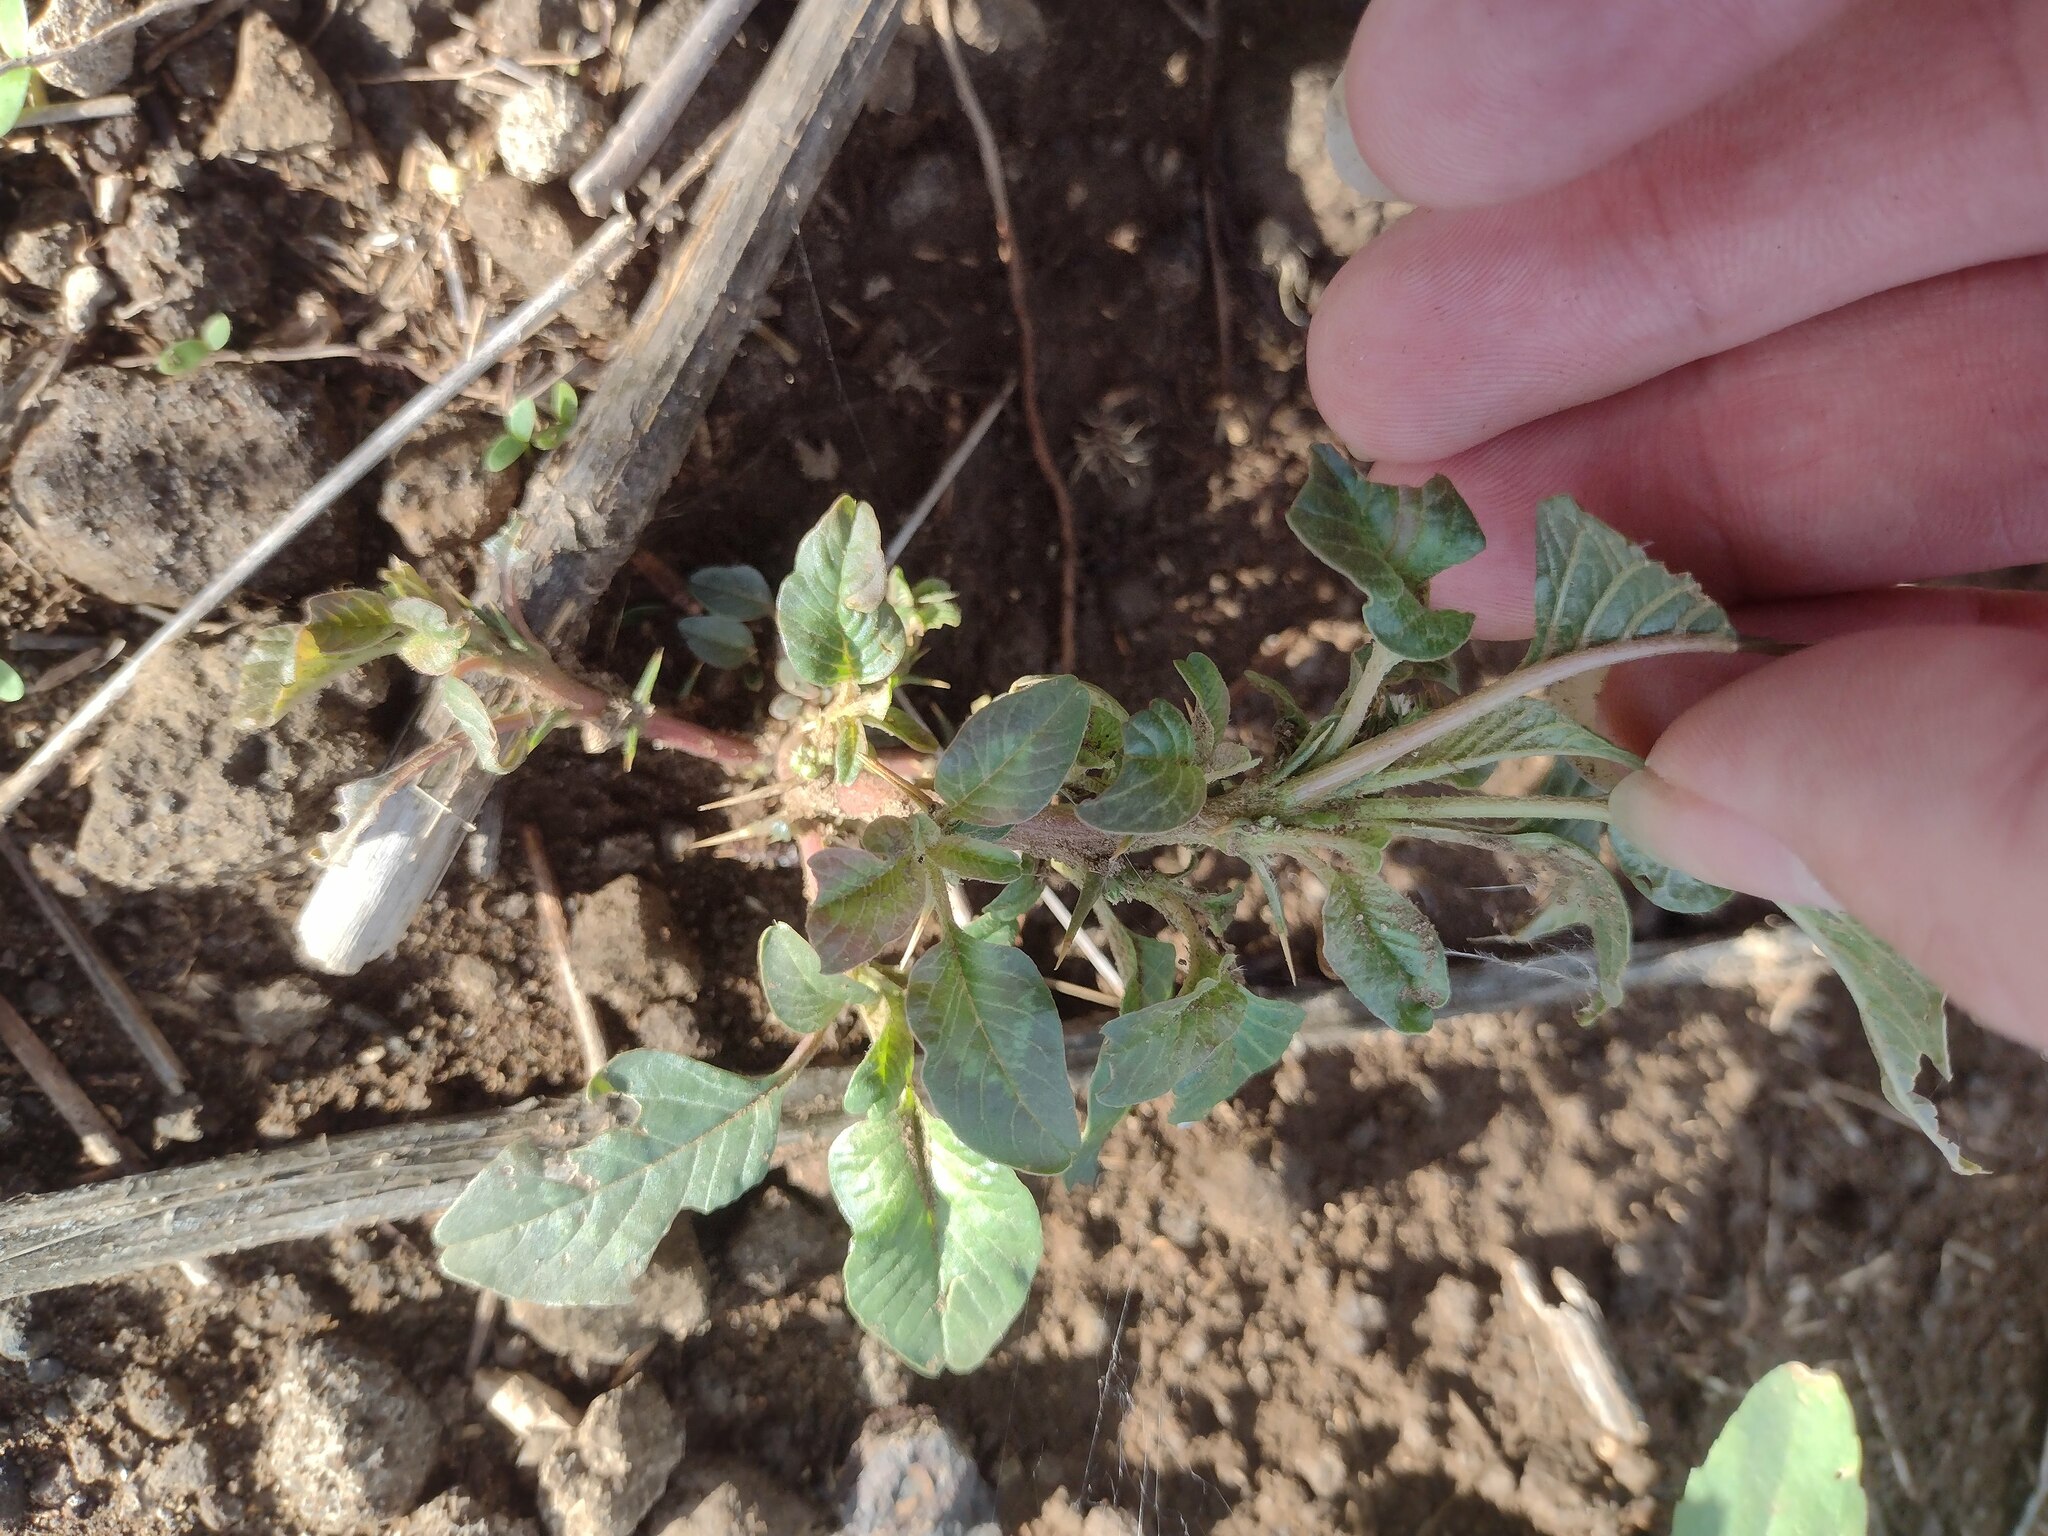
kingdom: Plantae
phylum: Tracheophyta
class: Magnoliopsida
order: Caryophyllales
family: Amaranthaceae
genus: Amaranthus
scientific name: Amaranthus spinosus
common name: Spiny amaranth
